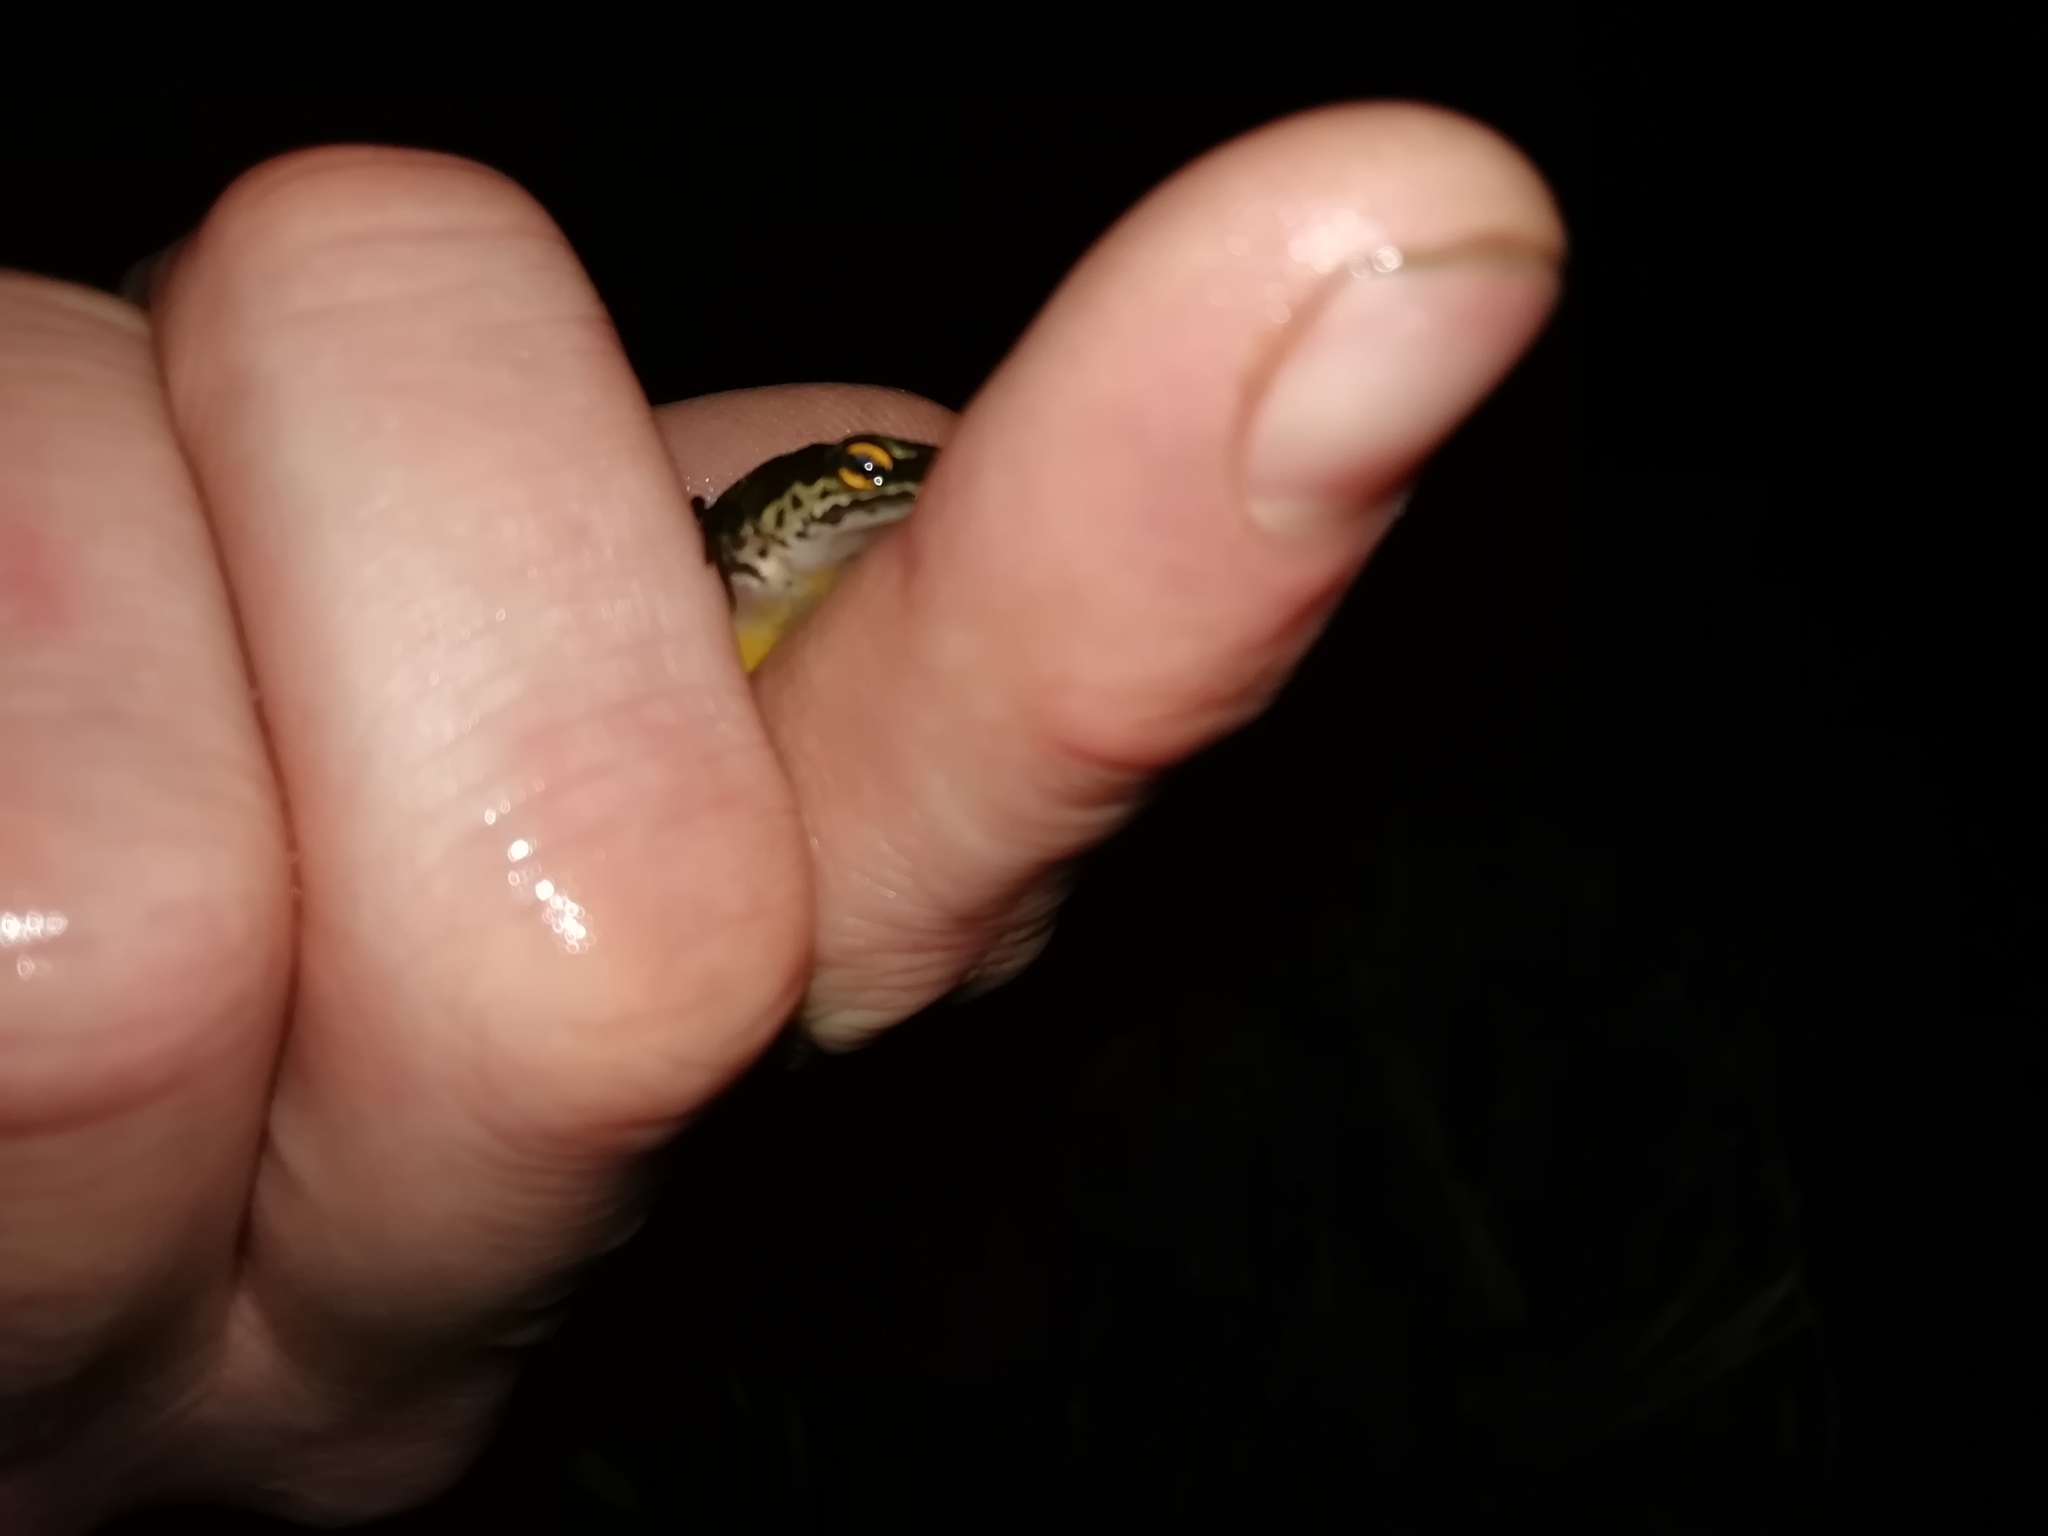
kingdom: Animalia
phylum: Chordata
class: Amphibia
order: Caudata
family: Salamandridae
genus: Lissotriton
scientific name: Lissotriton helveticus
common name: Palmate newt
